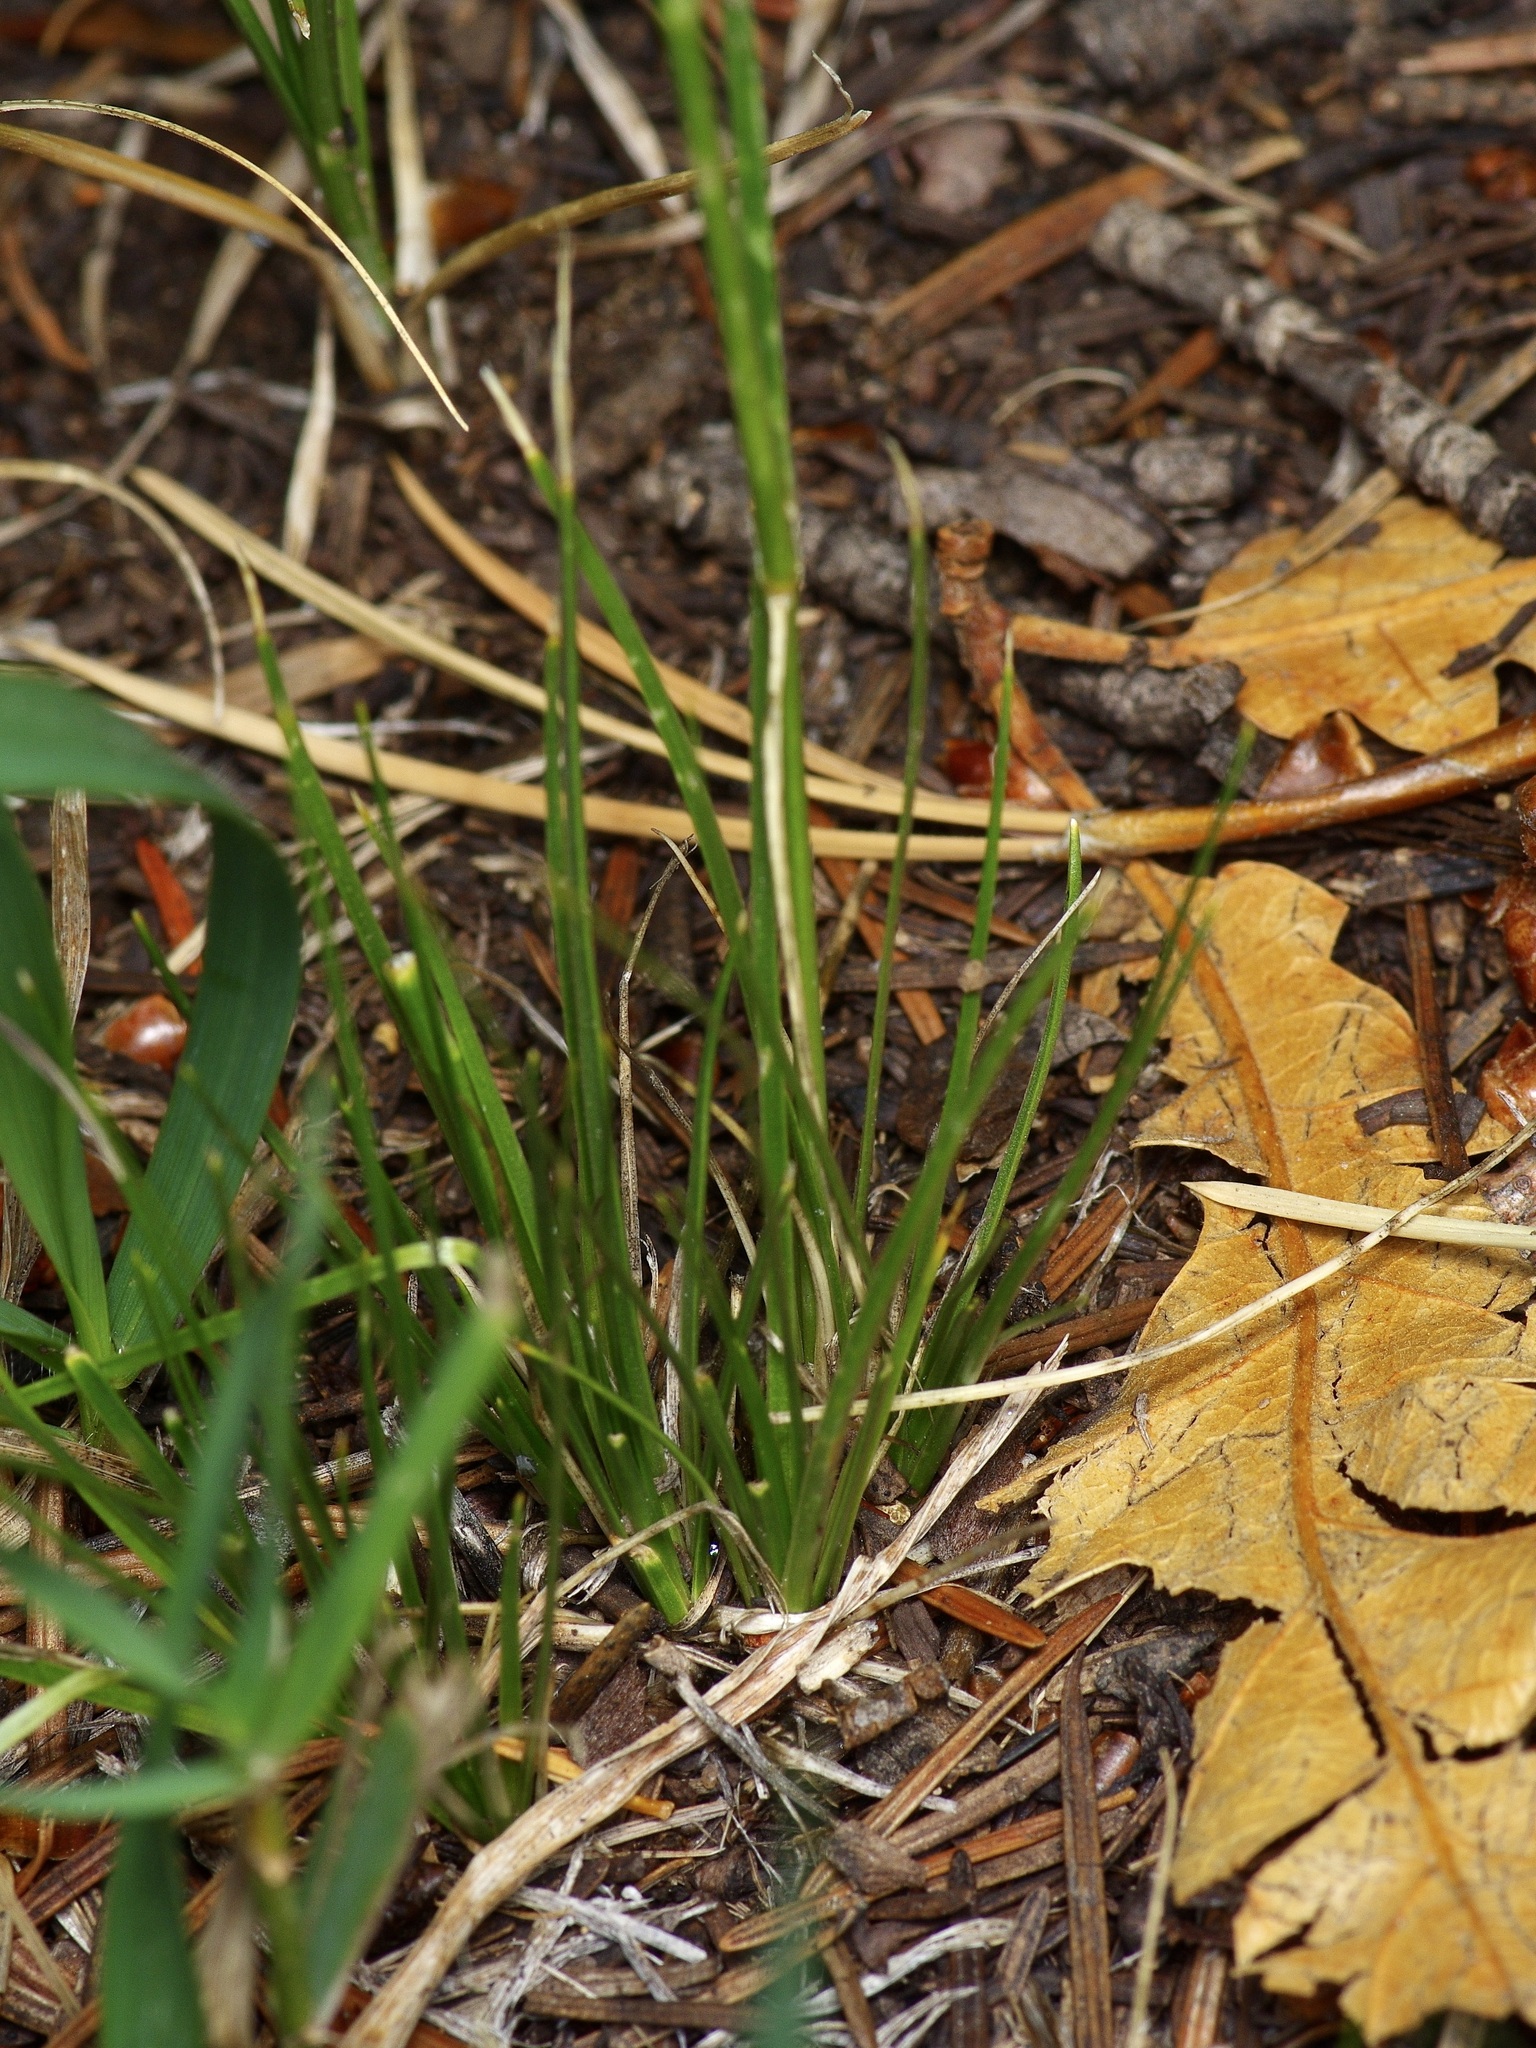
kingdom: Plantae
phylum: Tracheophyta
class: Magnoliopsida
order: Caryophyllales
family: Caryophyllaceae
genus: Eremogone
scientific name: Eremogone fendleri
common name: Fendler's sandwort
